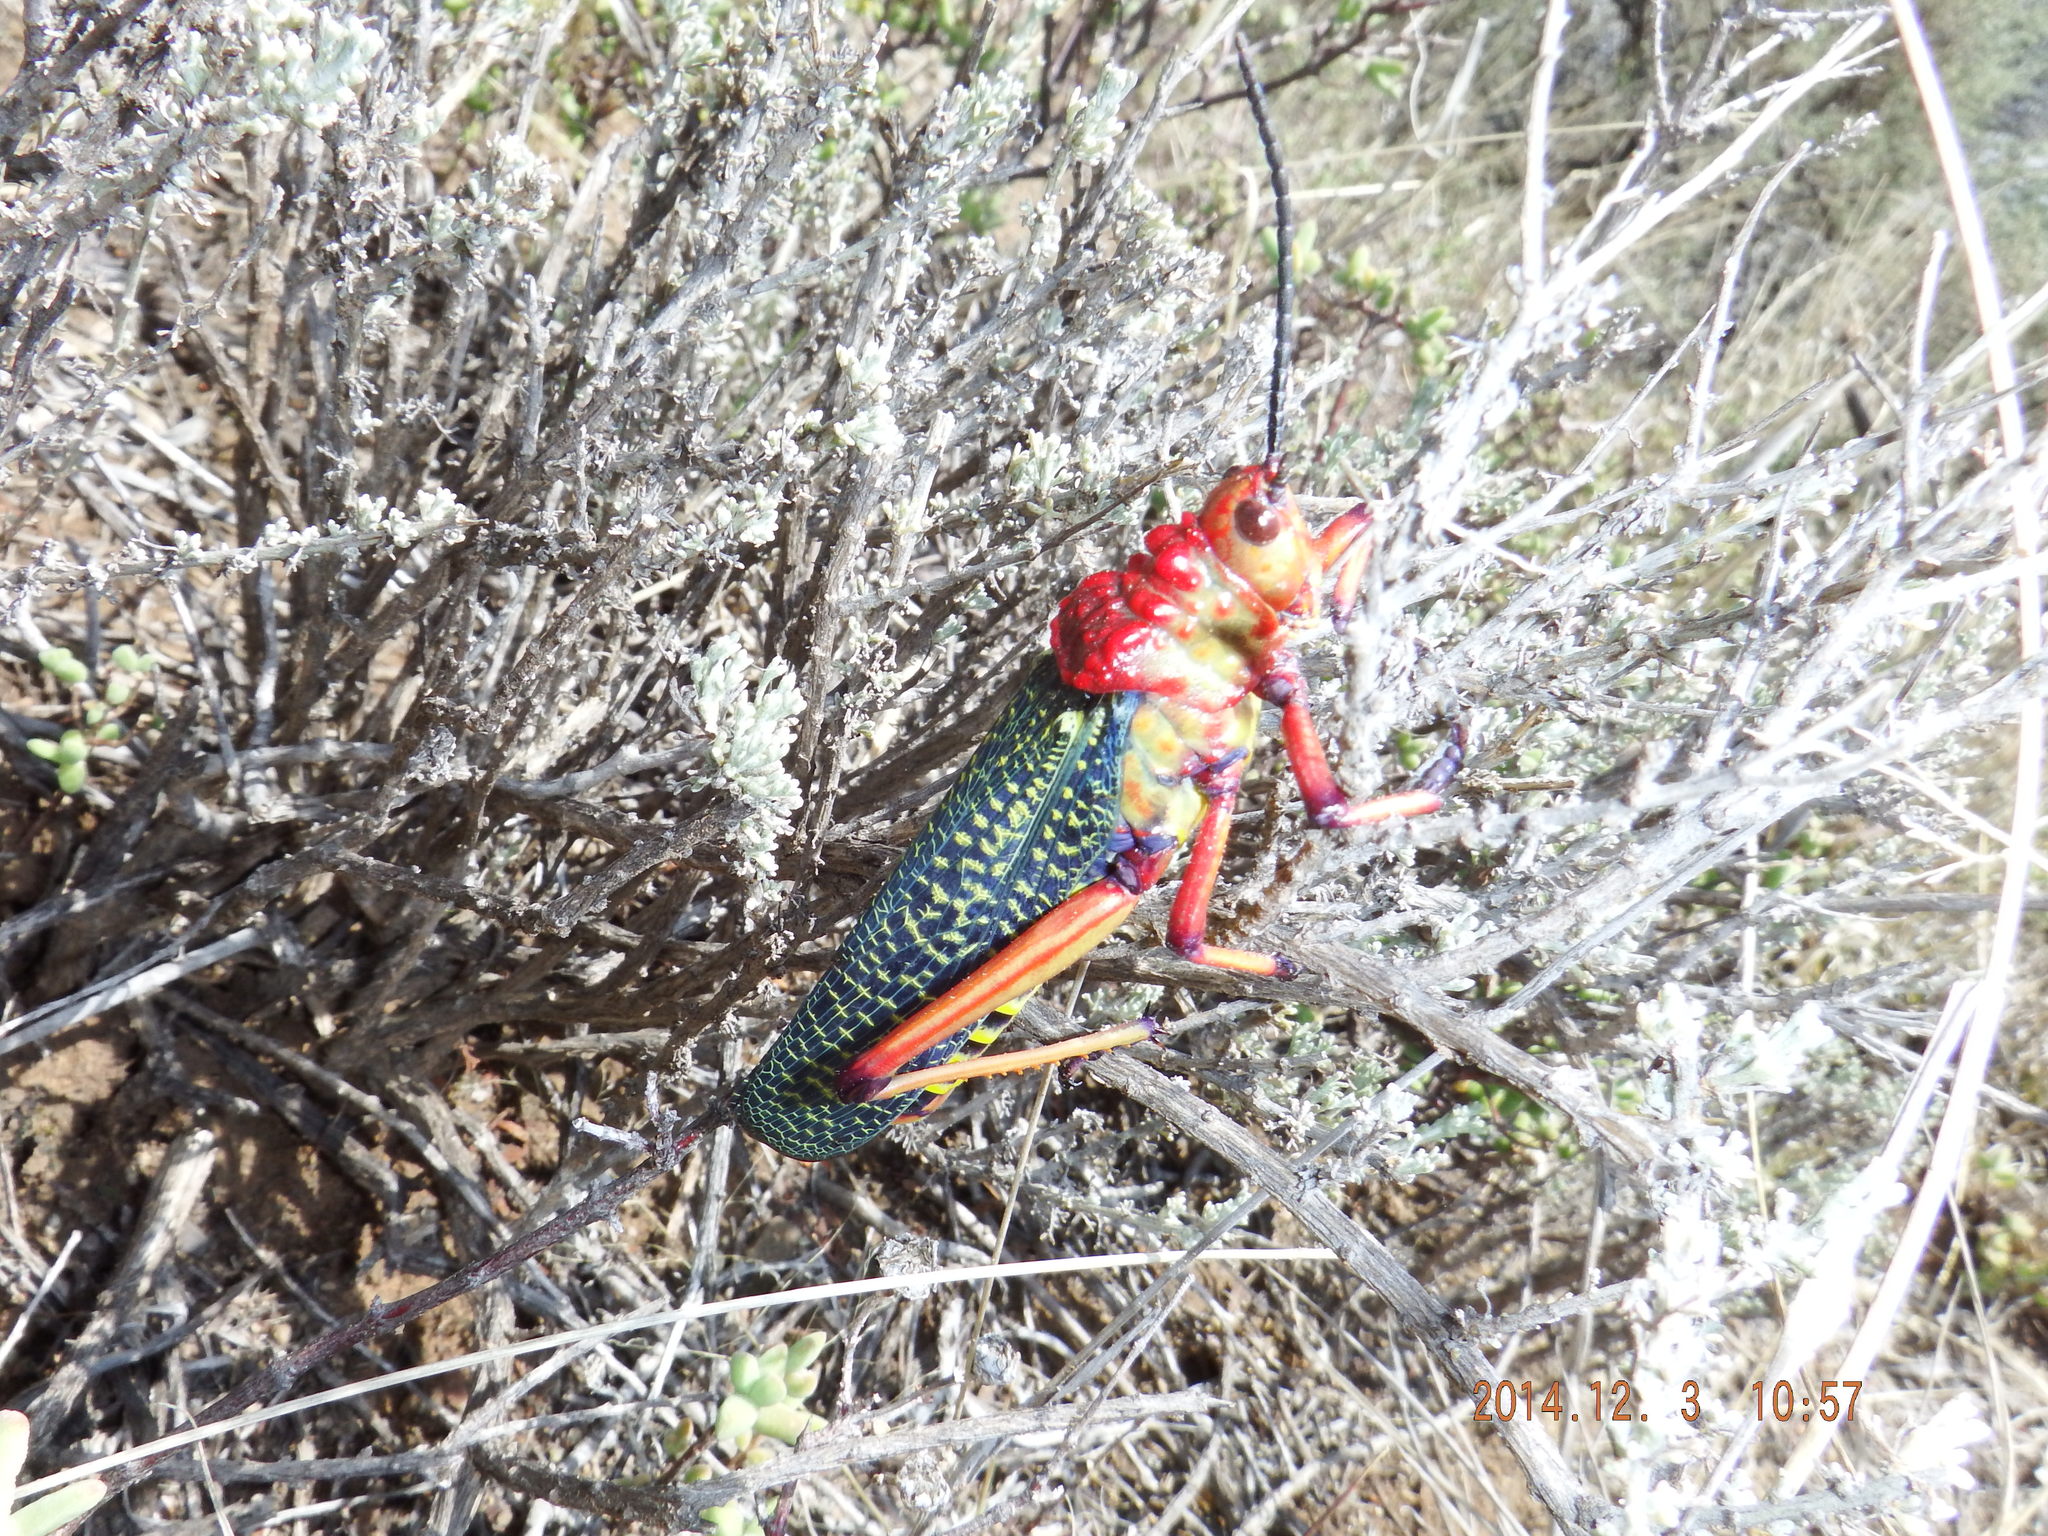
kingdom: Animalia
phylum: Arthropoda
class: Insecta
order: Orthoptera
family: Pyrgomorphidae
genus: Phymateus
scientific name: Phymateus morbillosus
